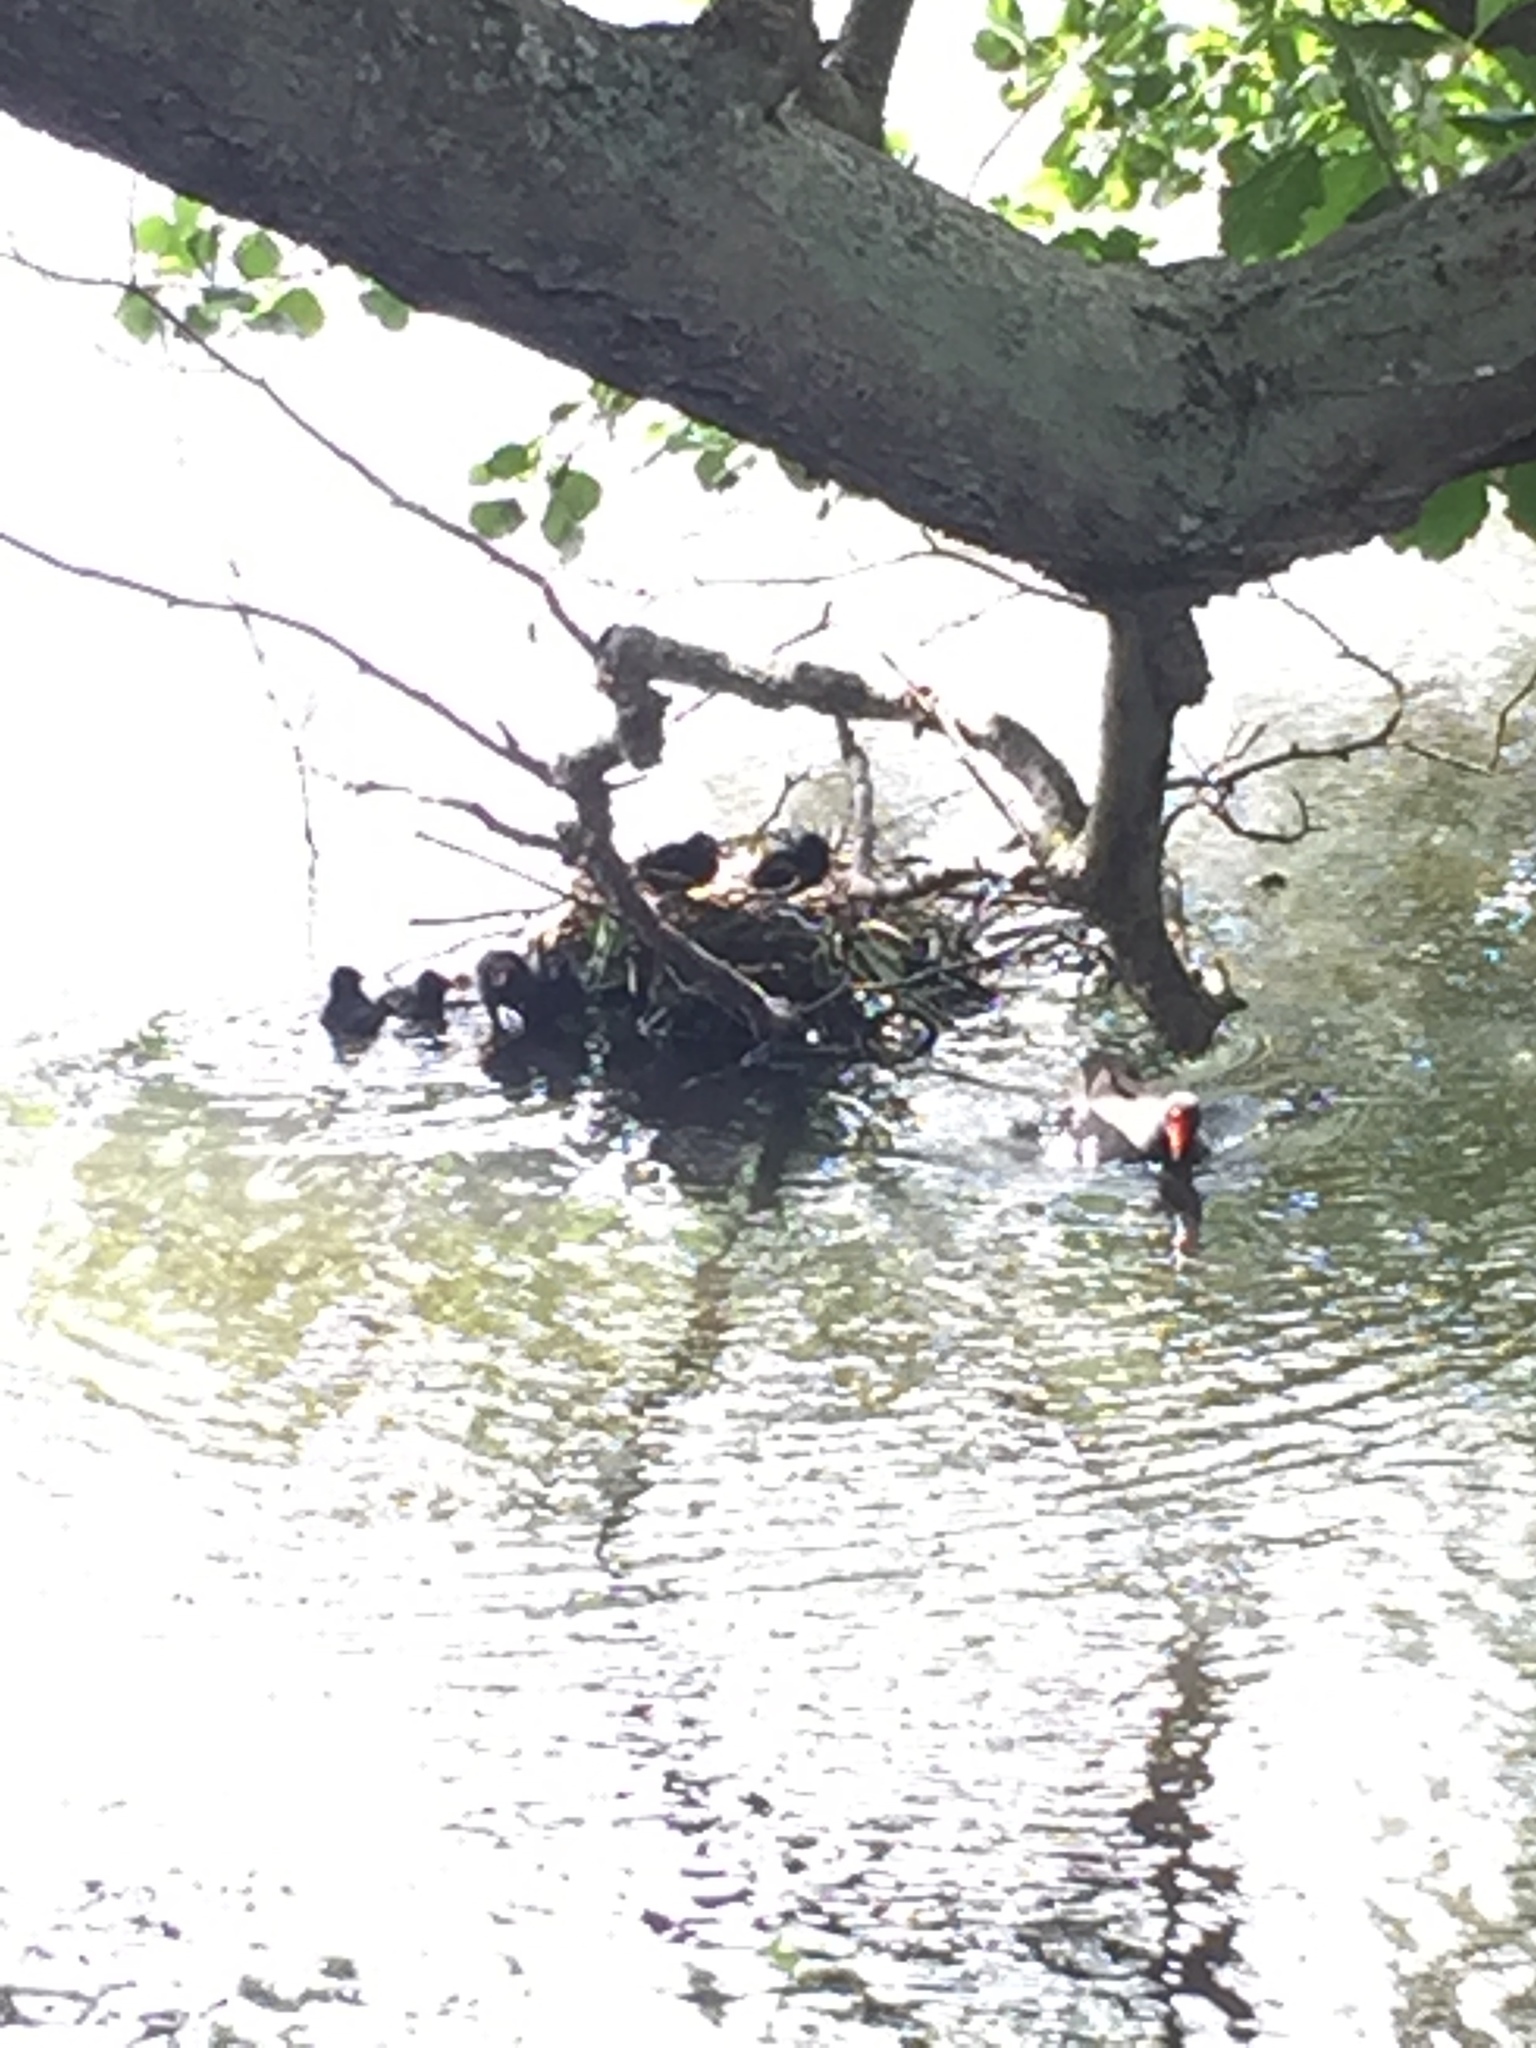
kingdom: Animalia
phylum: Chordata
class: Aves
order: Gruiformes
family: Rallidae
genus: Gallinula
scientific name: Gallinula chloropus
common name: Common moorhen
